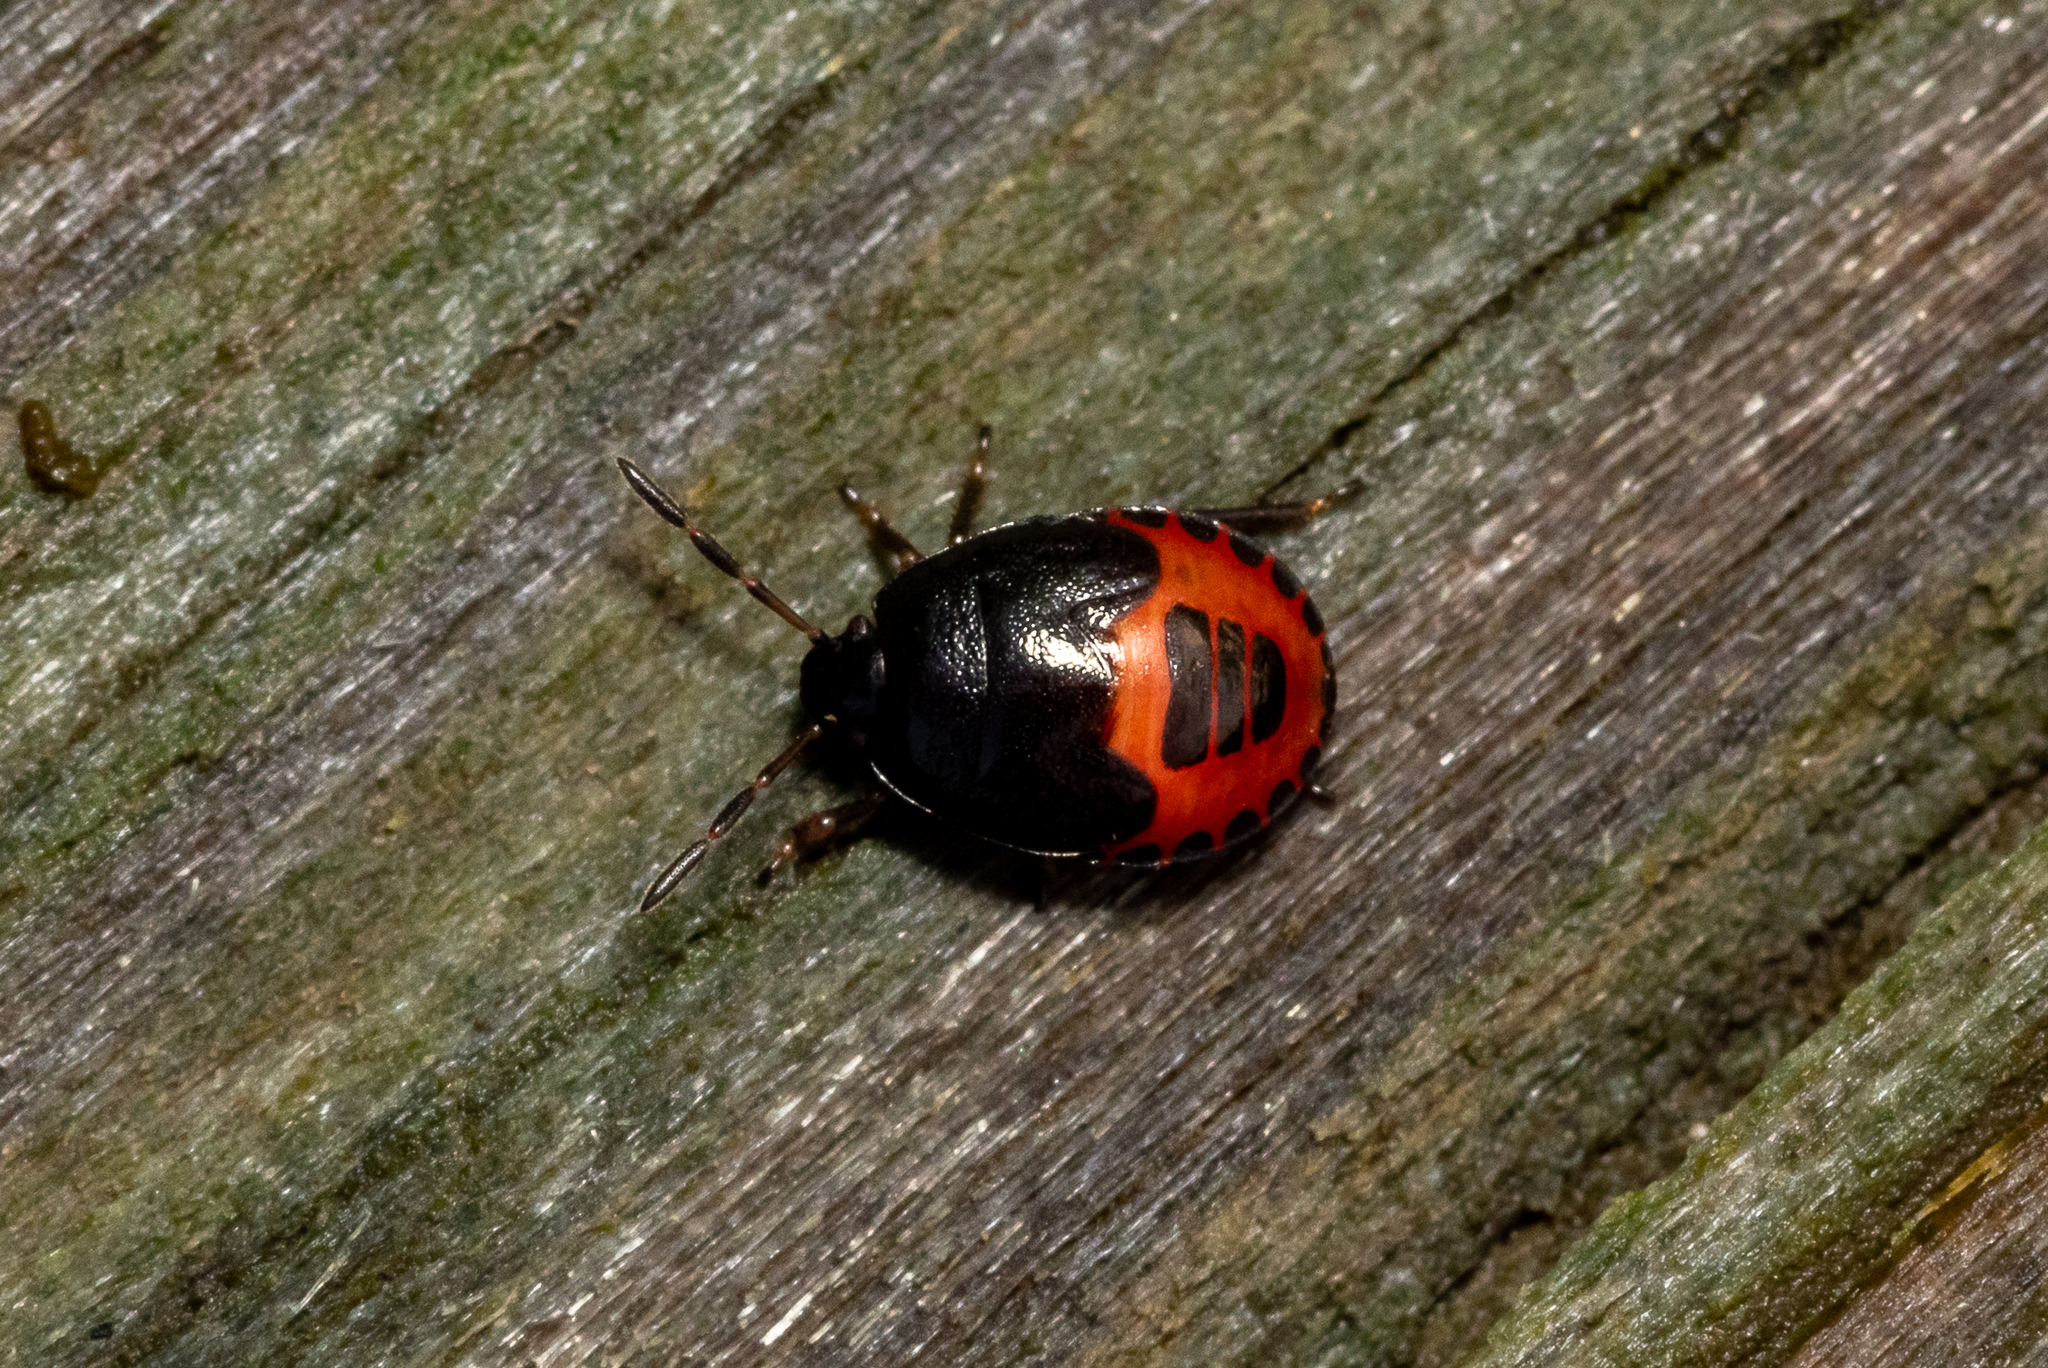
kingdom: Animalia
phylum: Arthropoda
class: Insecta
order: Hemiptera
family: Cydnidae
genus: Sehirus
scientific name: Sehirus cinctus
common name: White-margined burrower bug
